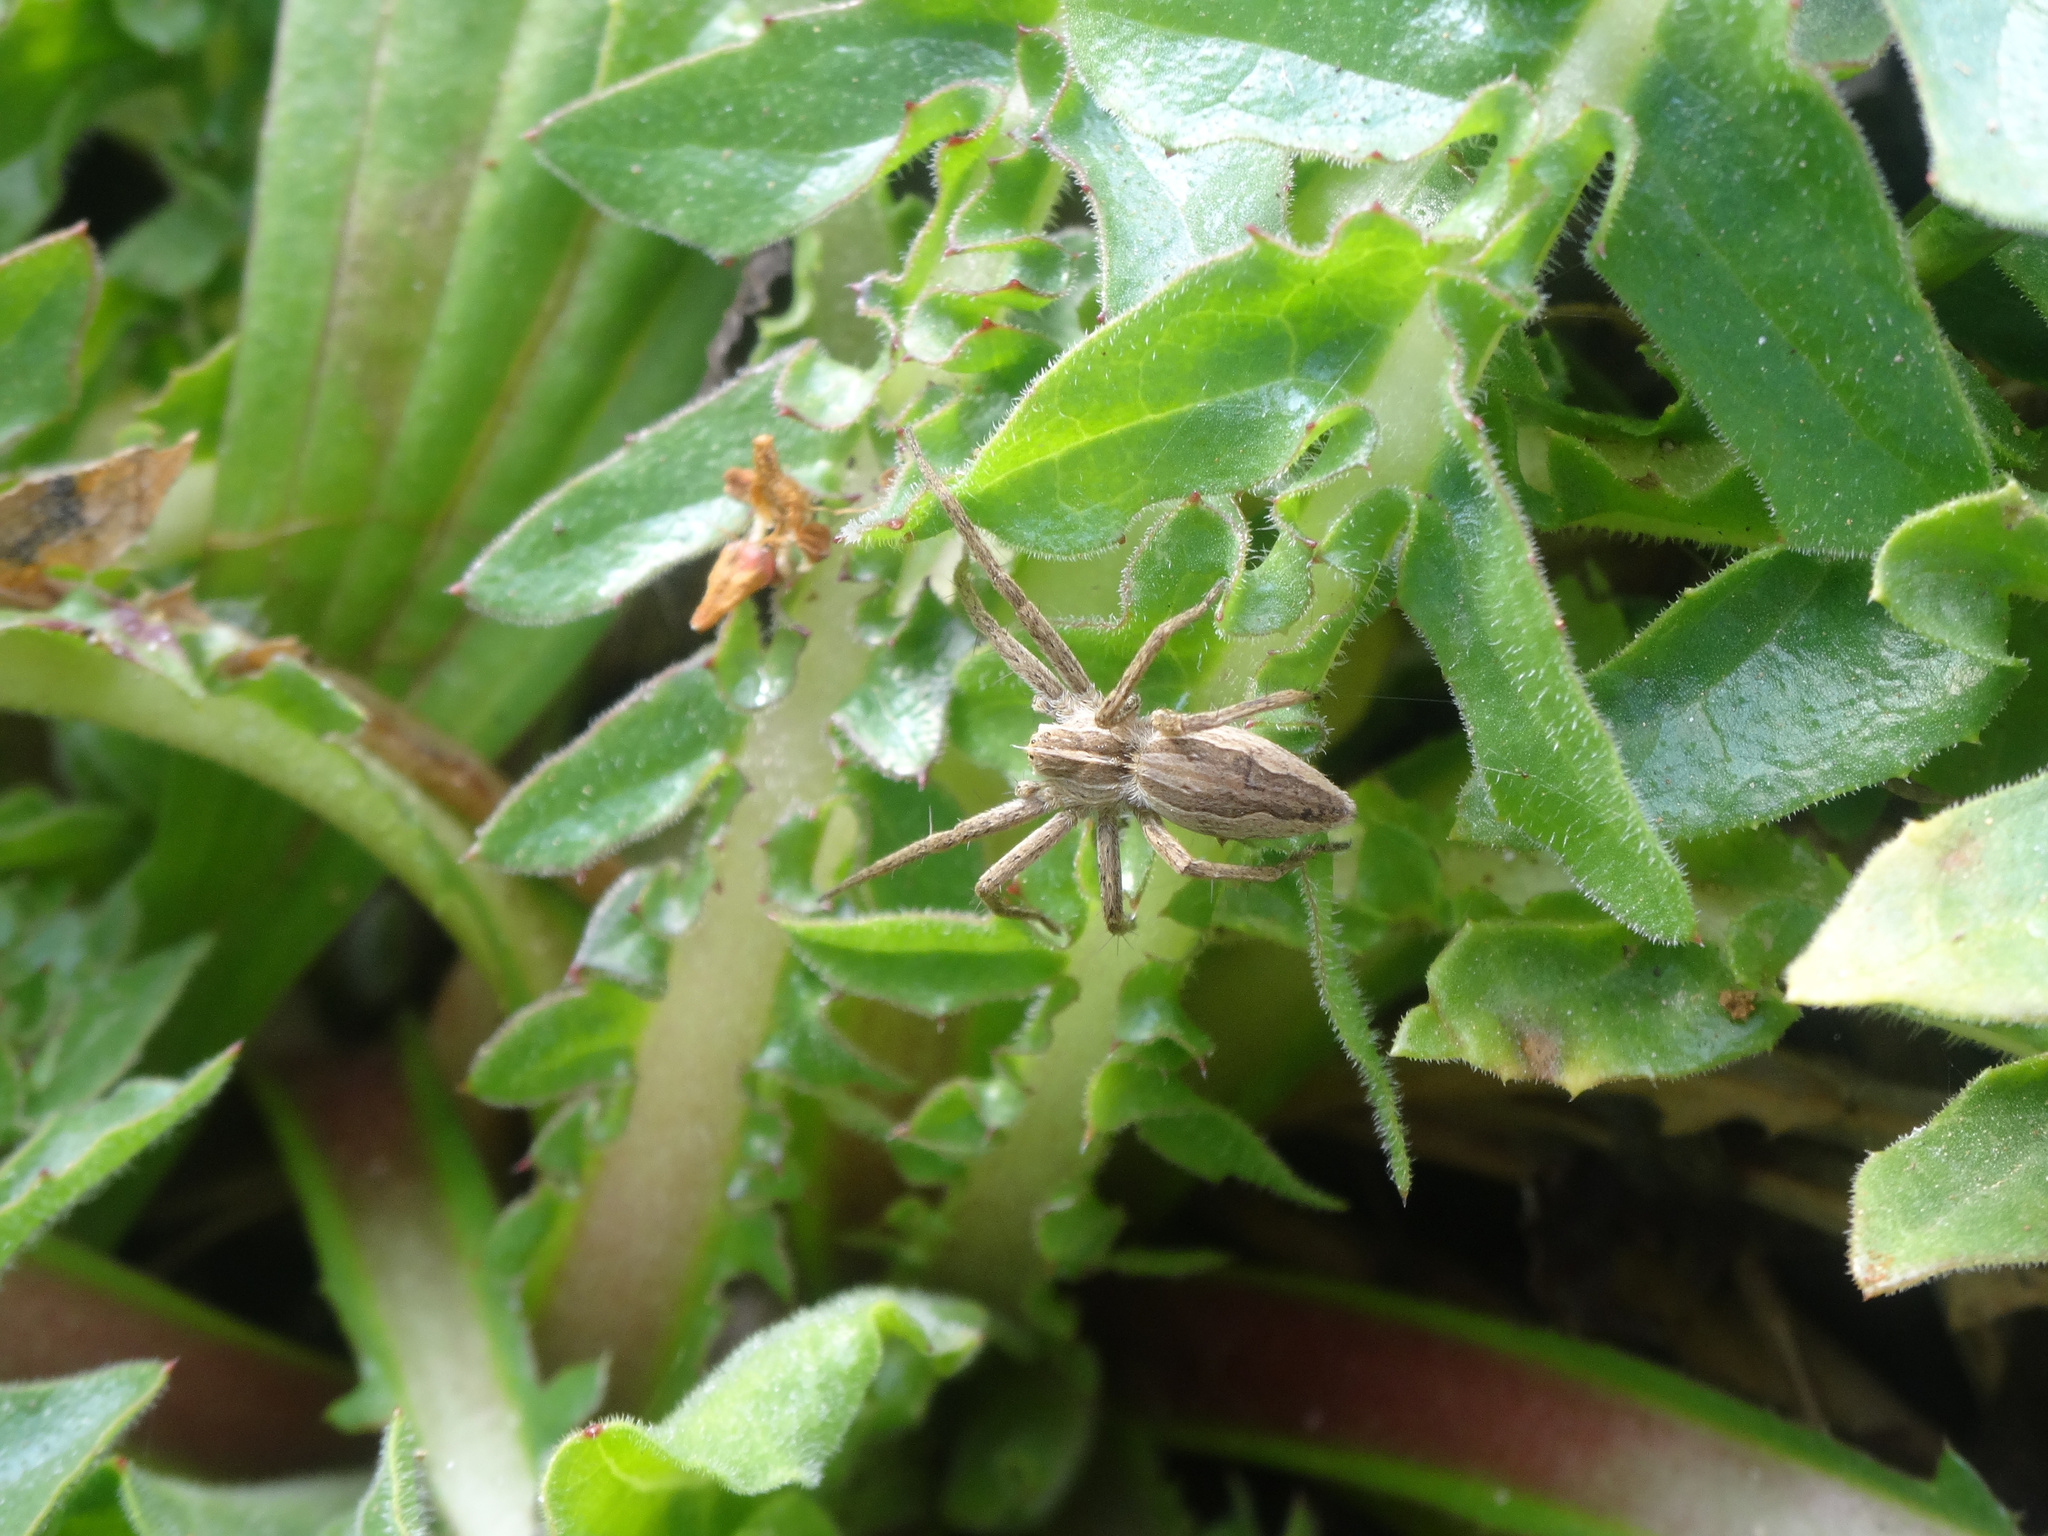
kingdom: Animalia
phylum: Arthropoda
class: Arachnida
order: Araneae
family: Pisauridae
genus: Pisaura
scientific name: Pisaura
